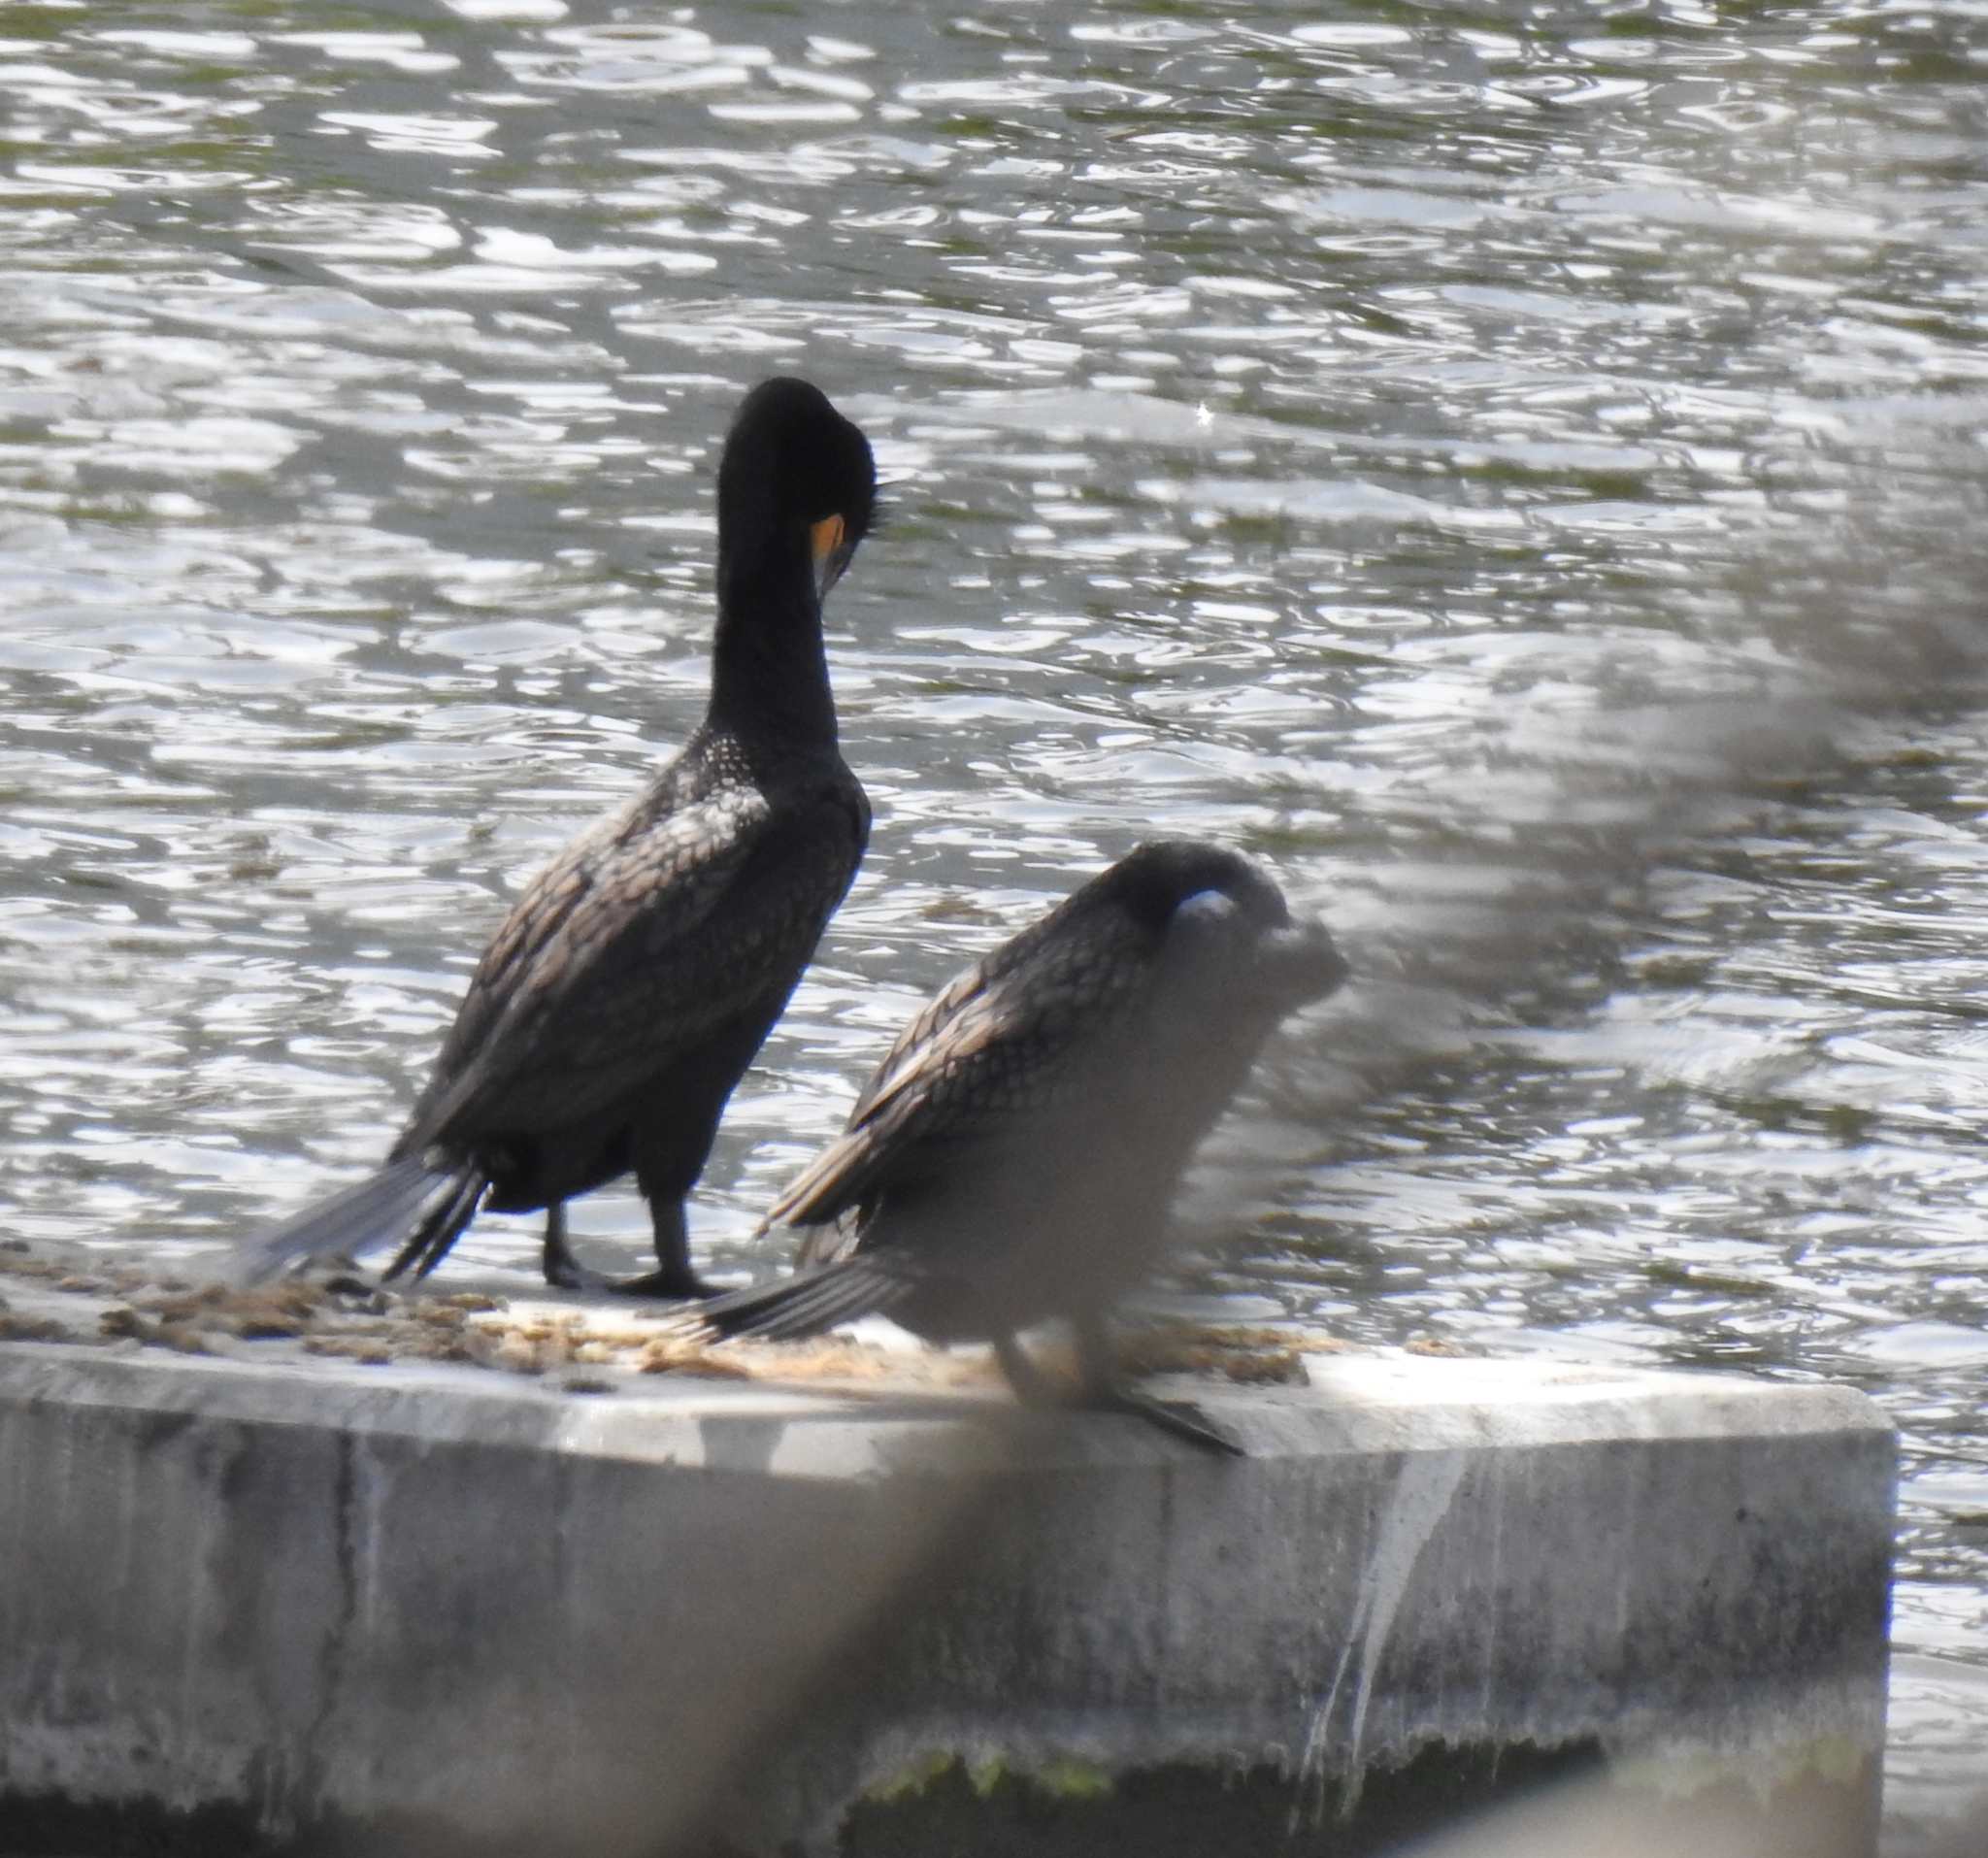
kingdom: Animalia
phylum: Chordata
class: Aves
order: Suliformes
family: Phalacrocoracidae
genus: Phalacrocorax
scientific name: Phalacrocorax auritus
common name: Double-crested cormorant
